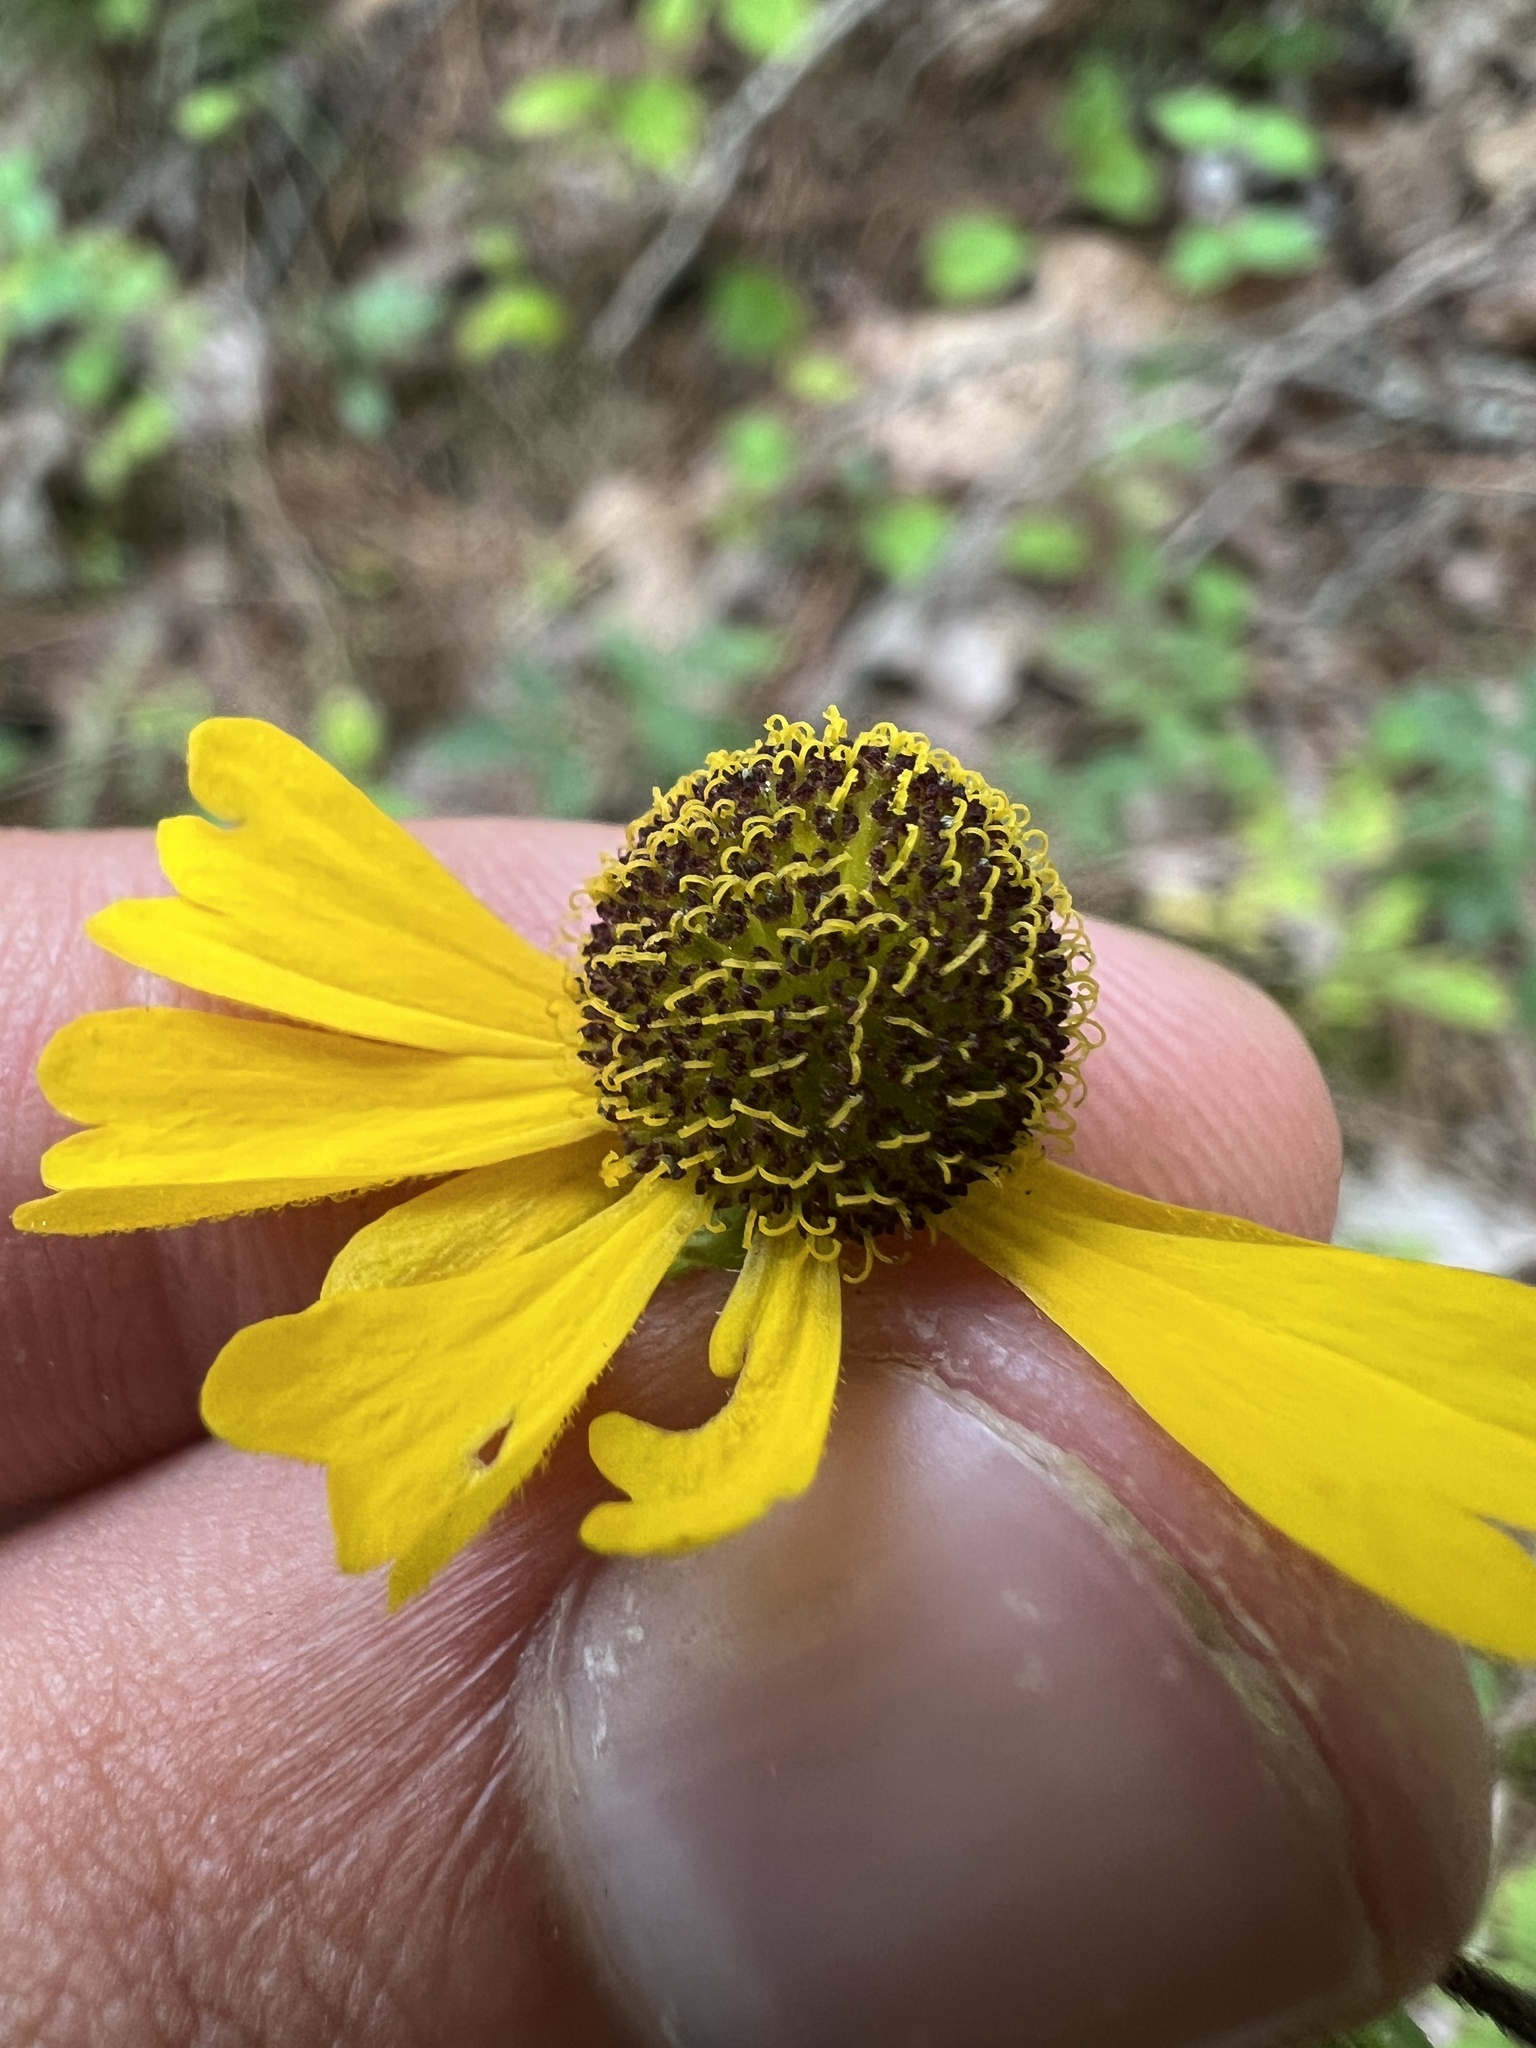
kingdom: Plantae
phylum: Tracheophyta
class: Magnoliopsida
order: Asterales
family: Asteraceae
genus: Helenium
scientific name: Helenium flexuosum
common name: Naked-flowered sneezeweed
